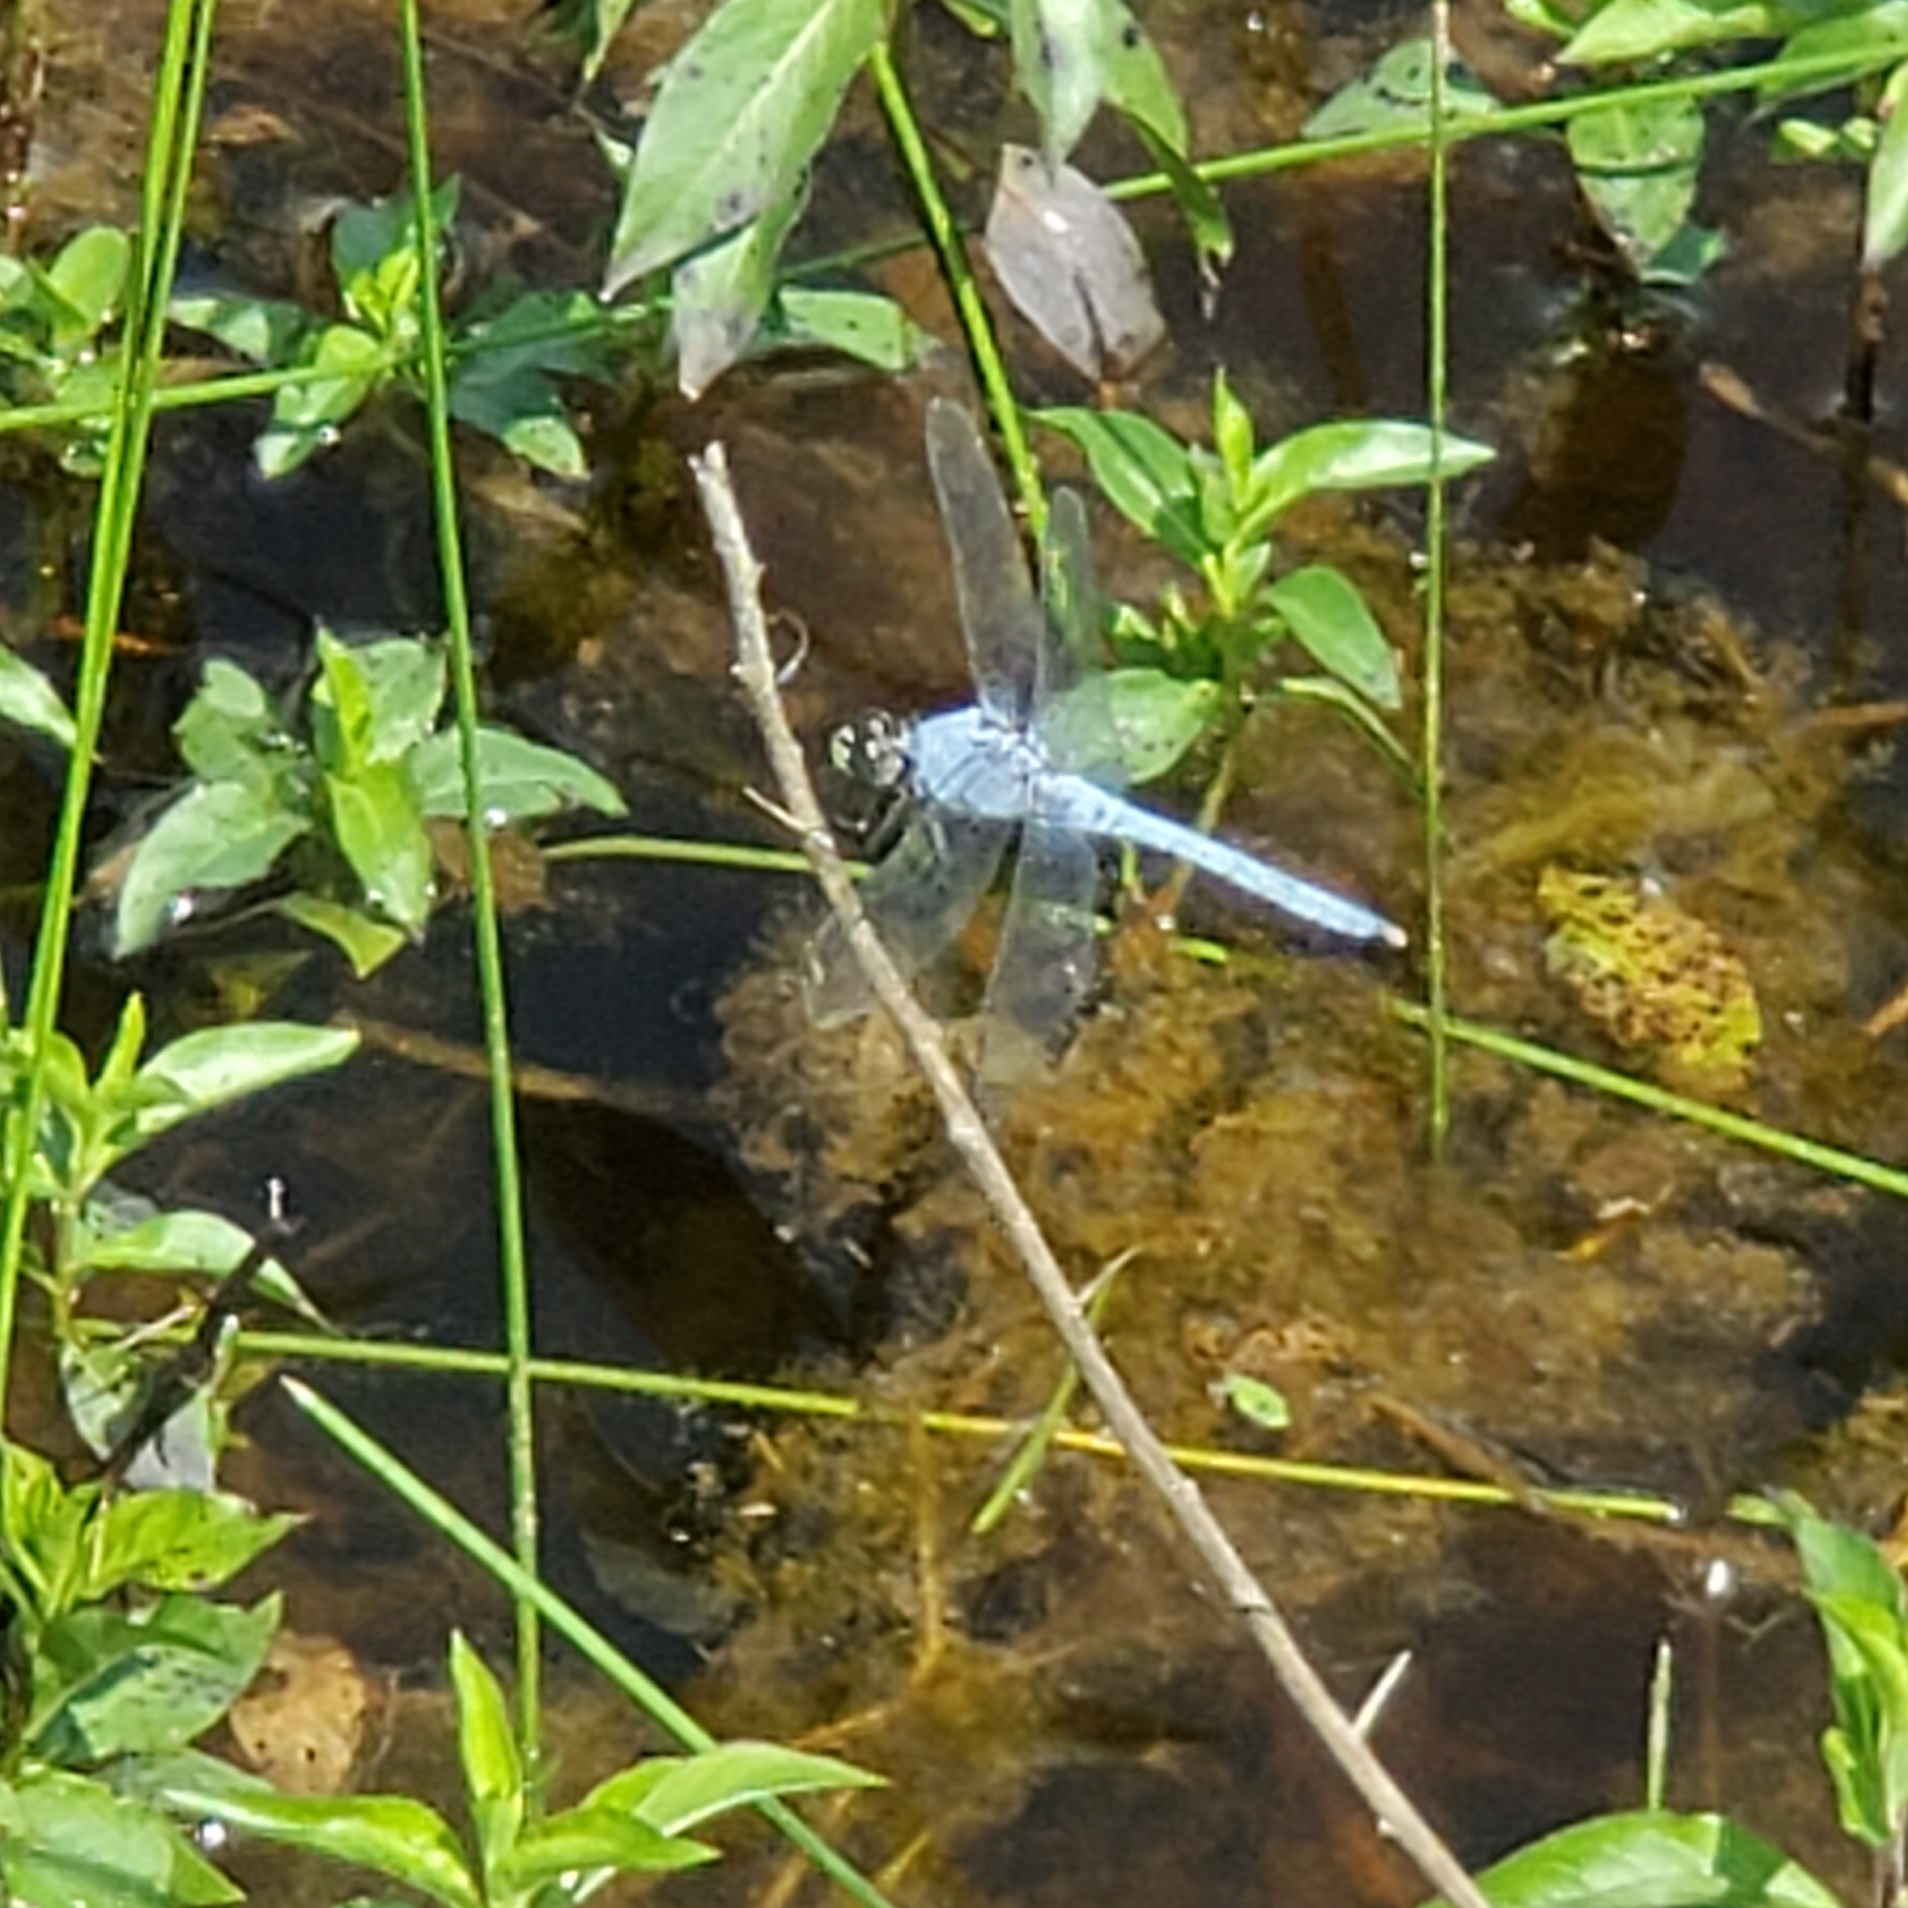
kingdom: Animalia
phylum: Arthropoda
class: Insecta
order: Odonata
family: Libellulidae
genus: Erythemis
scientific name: Erythemis simplicicollis
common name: Eastern pondhawk
